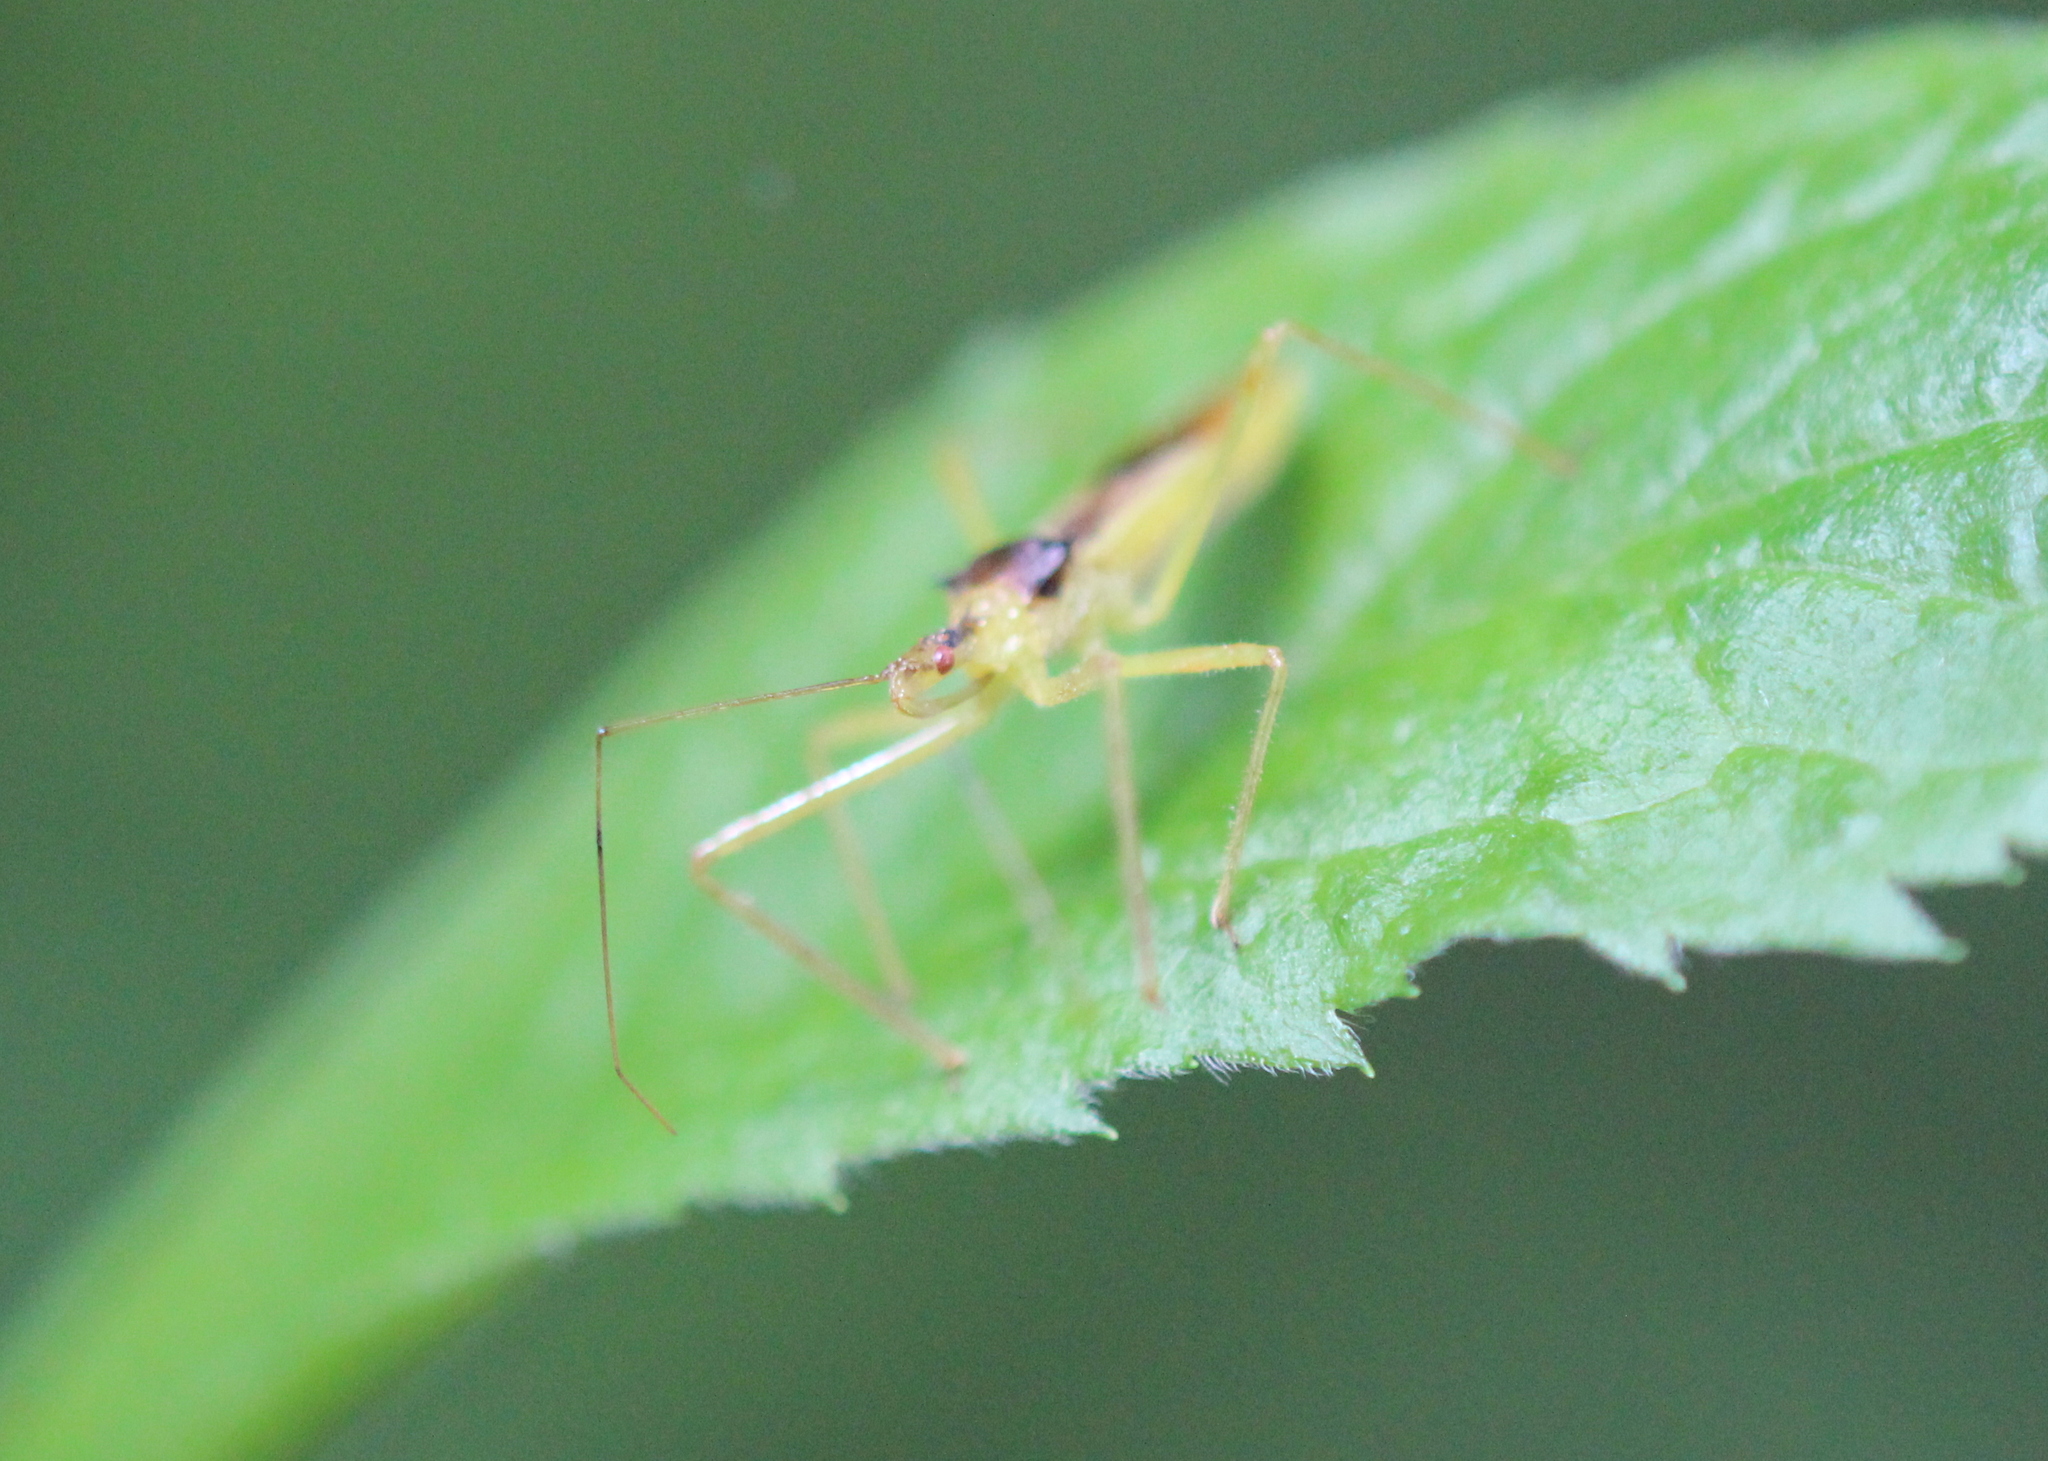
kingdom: Animalia
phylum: Arthropoda
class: Insecta
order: Hemiptera
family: Reduviidae
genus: Zelus
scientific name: Zelus luridus
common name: Pale green assassin bug
